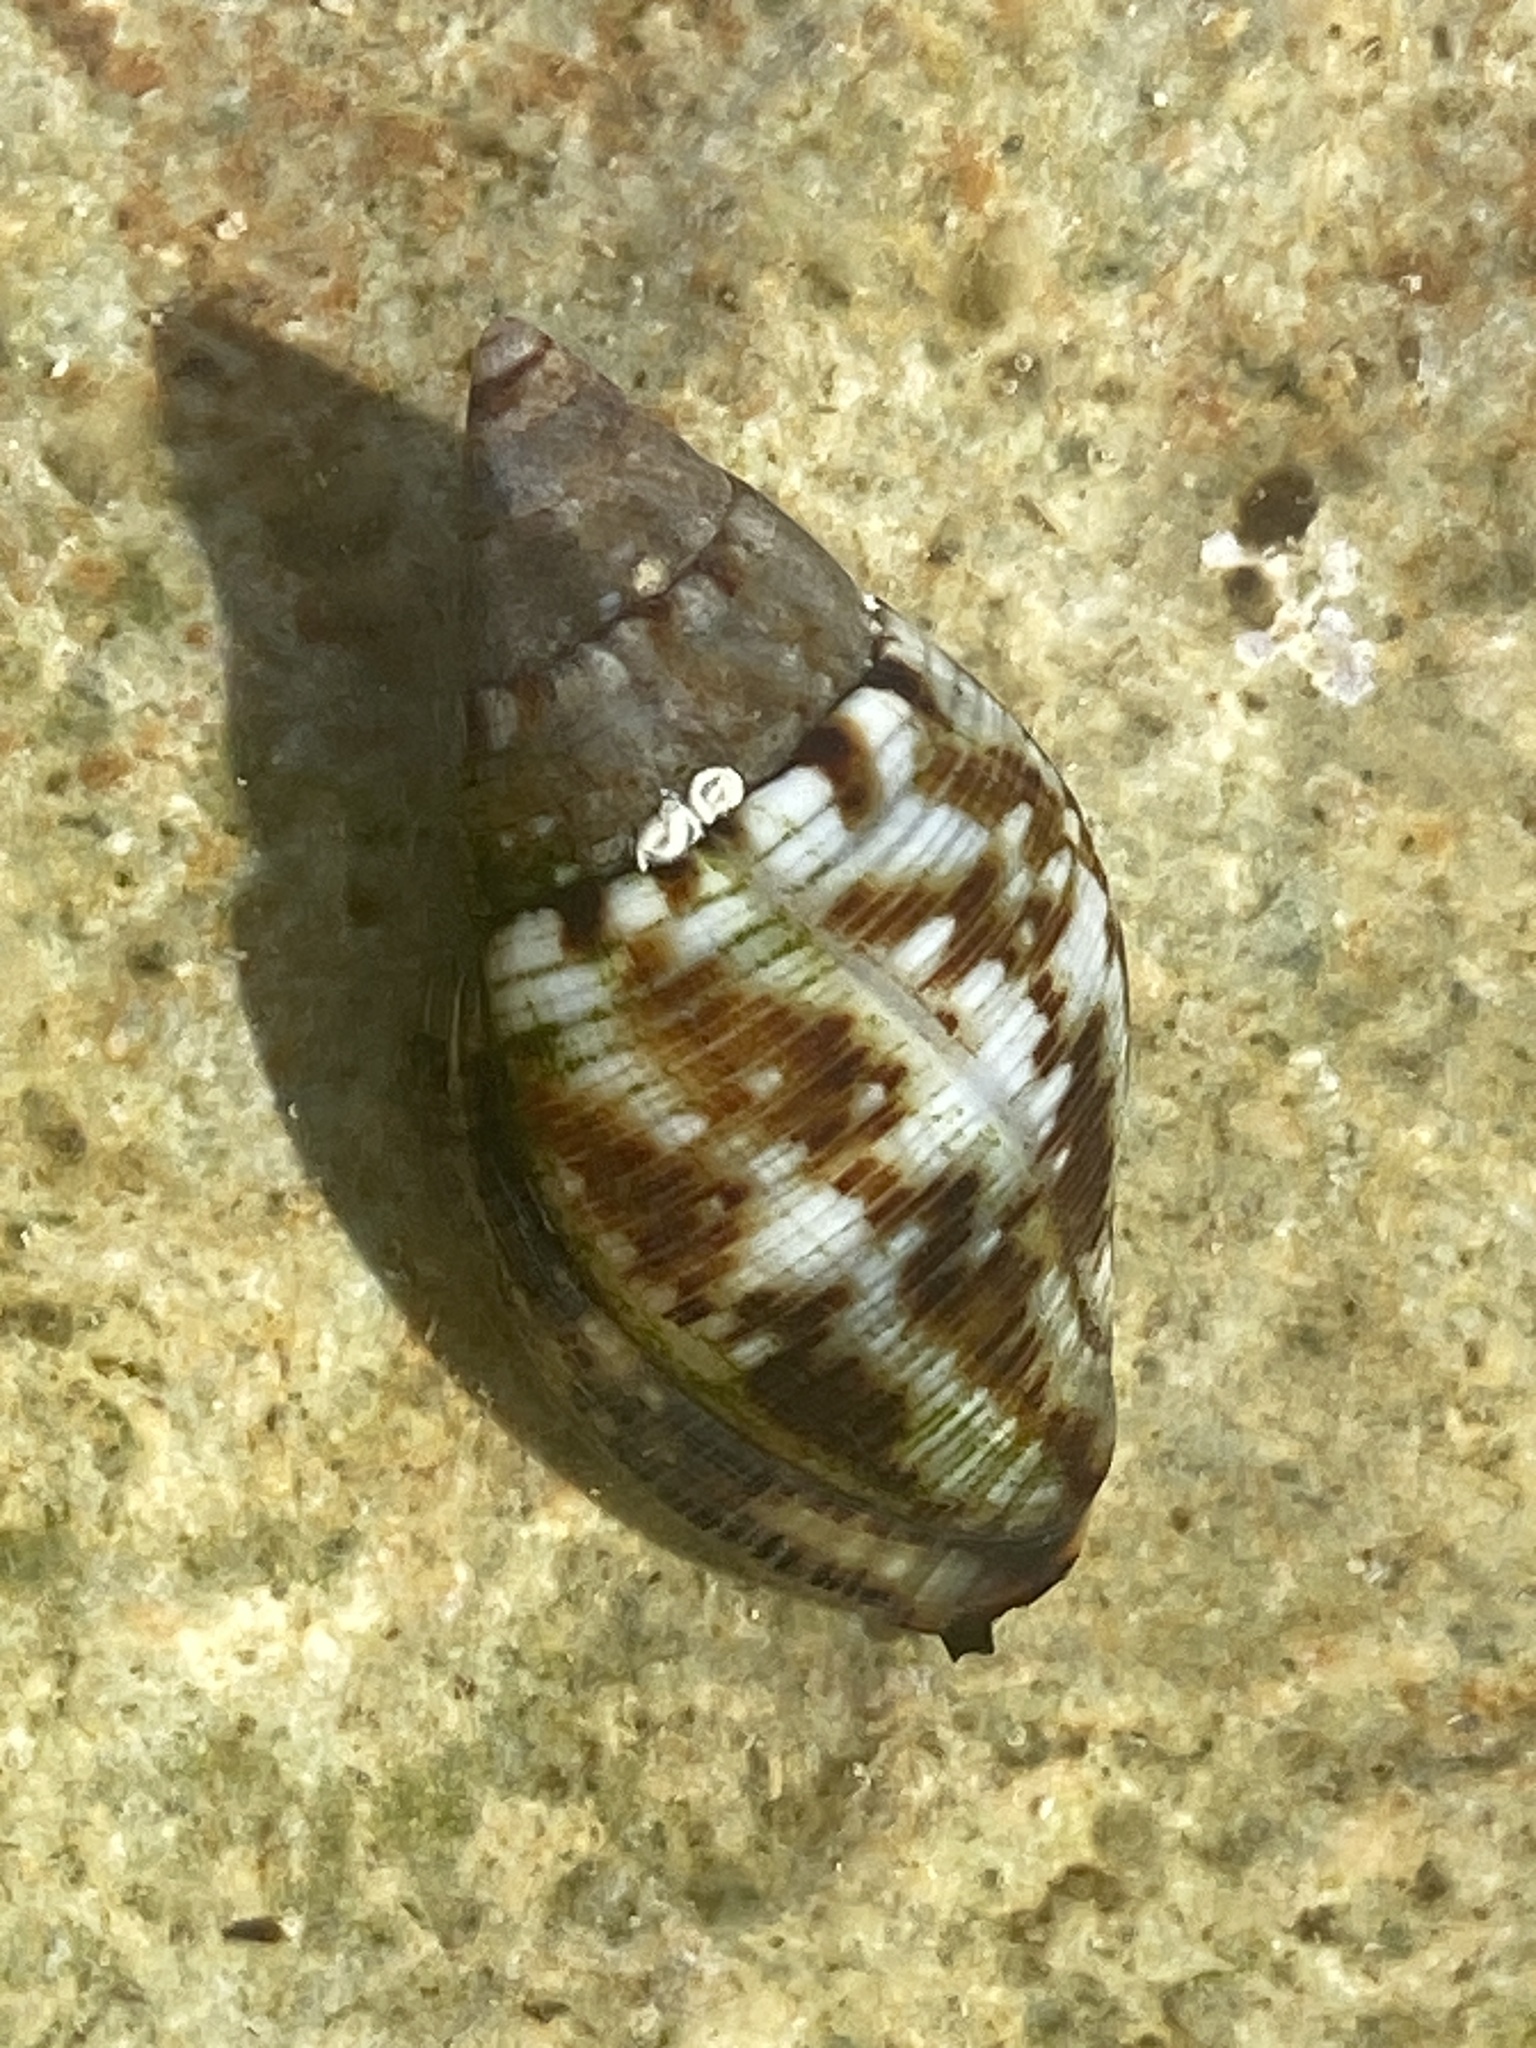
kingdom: Animalia
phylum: Mollusca
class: Gastropoda
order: Neogastropoda
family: Pisaniidae
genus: Pisania
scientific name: Pisania striata
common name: Spotted pisania
